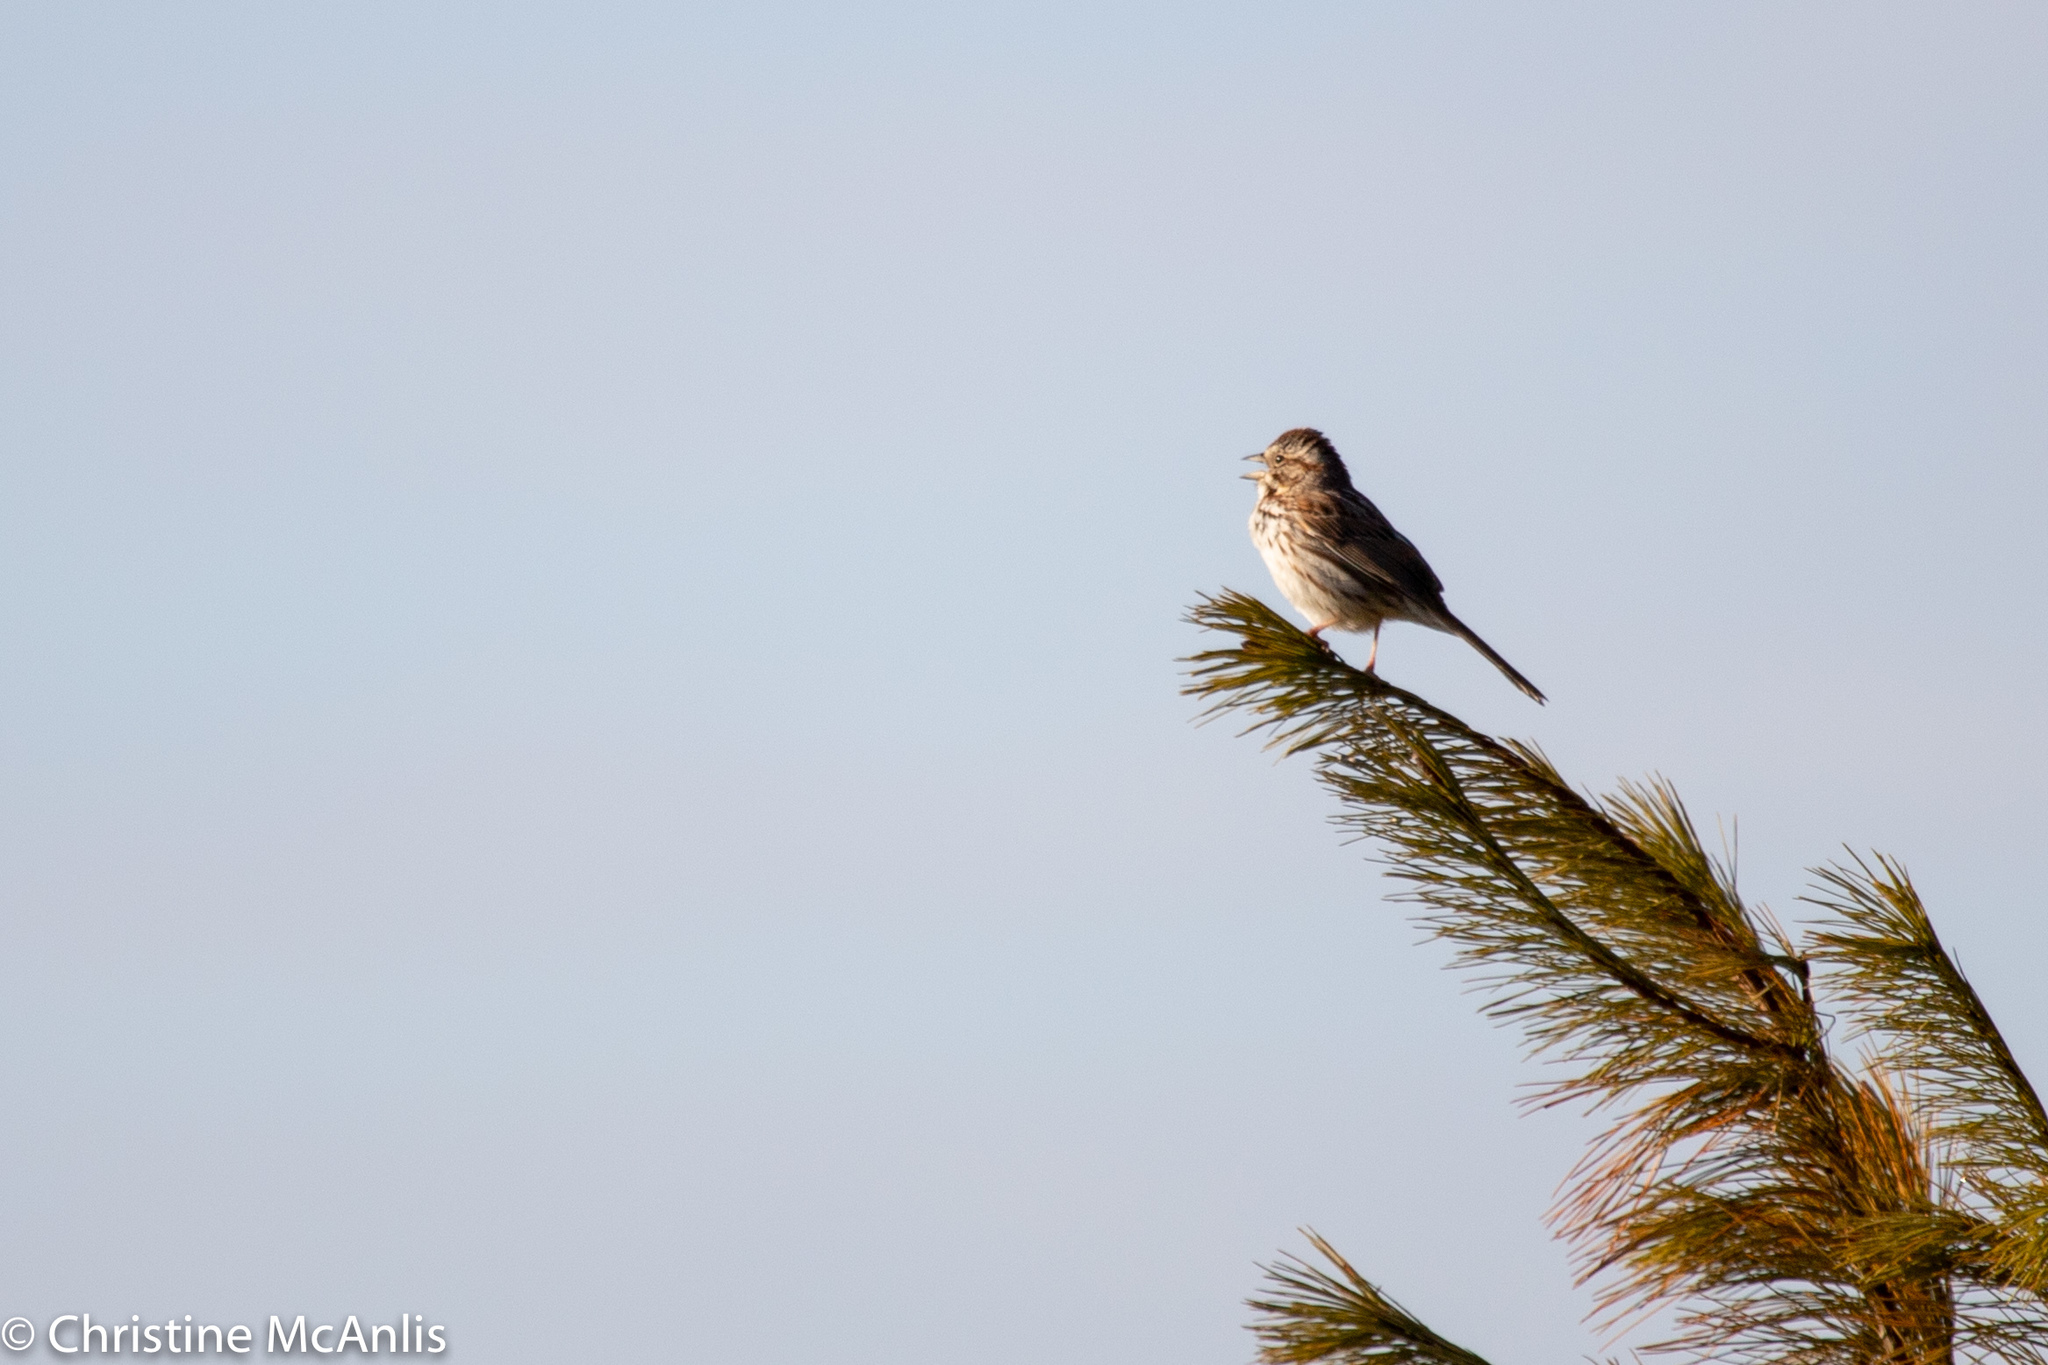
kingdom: Animalia
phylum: Chordata
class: Aves
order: Passeriformes
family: Passerellidae
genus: Melospiza
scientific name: Melospiza melodia
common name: Song sparrow
